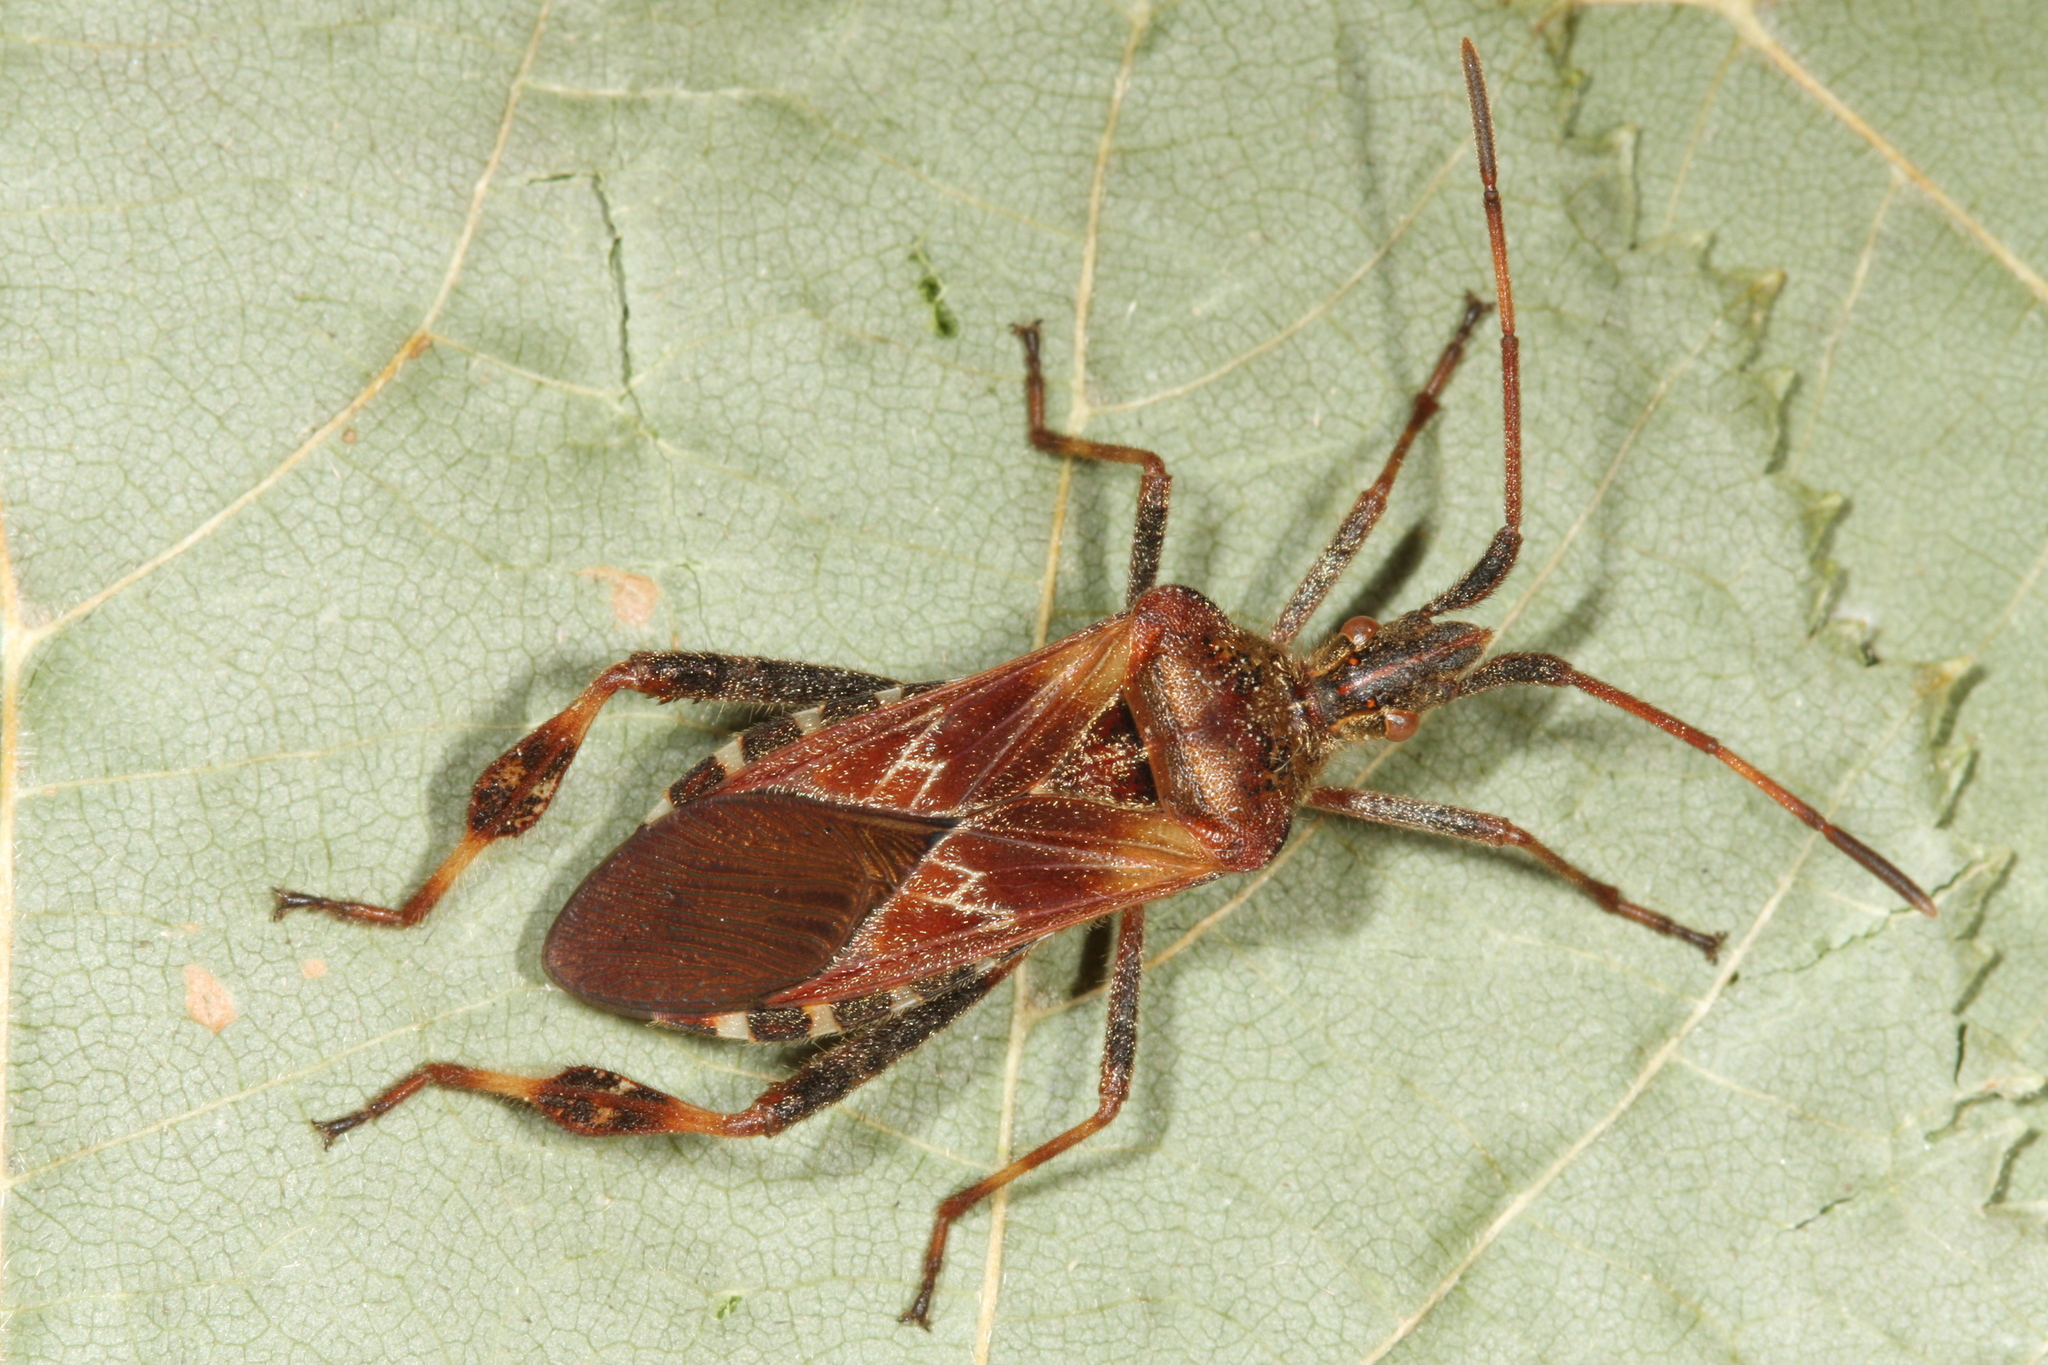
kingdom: Animalia
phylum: Arthropoda
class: Insecta
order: Hemiptera
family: Coreidae
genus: Leptoglossus
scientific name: Leptoglossus occidentalis
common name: Western conifer-seed bug
